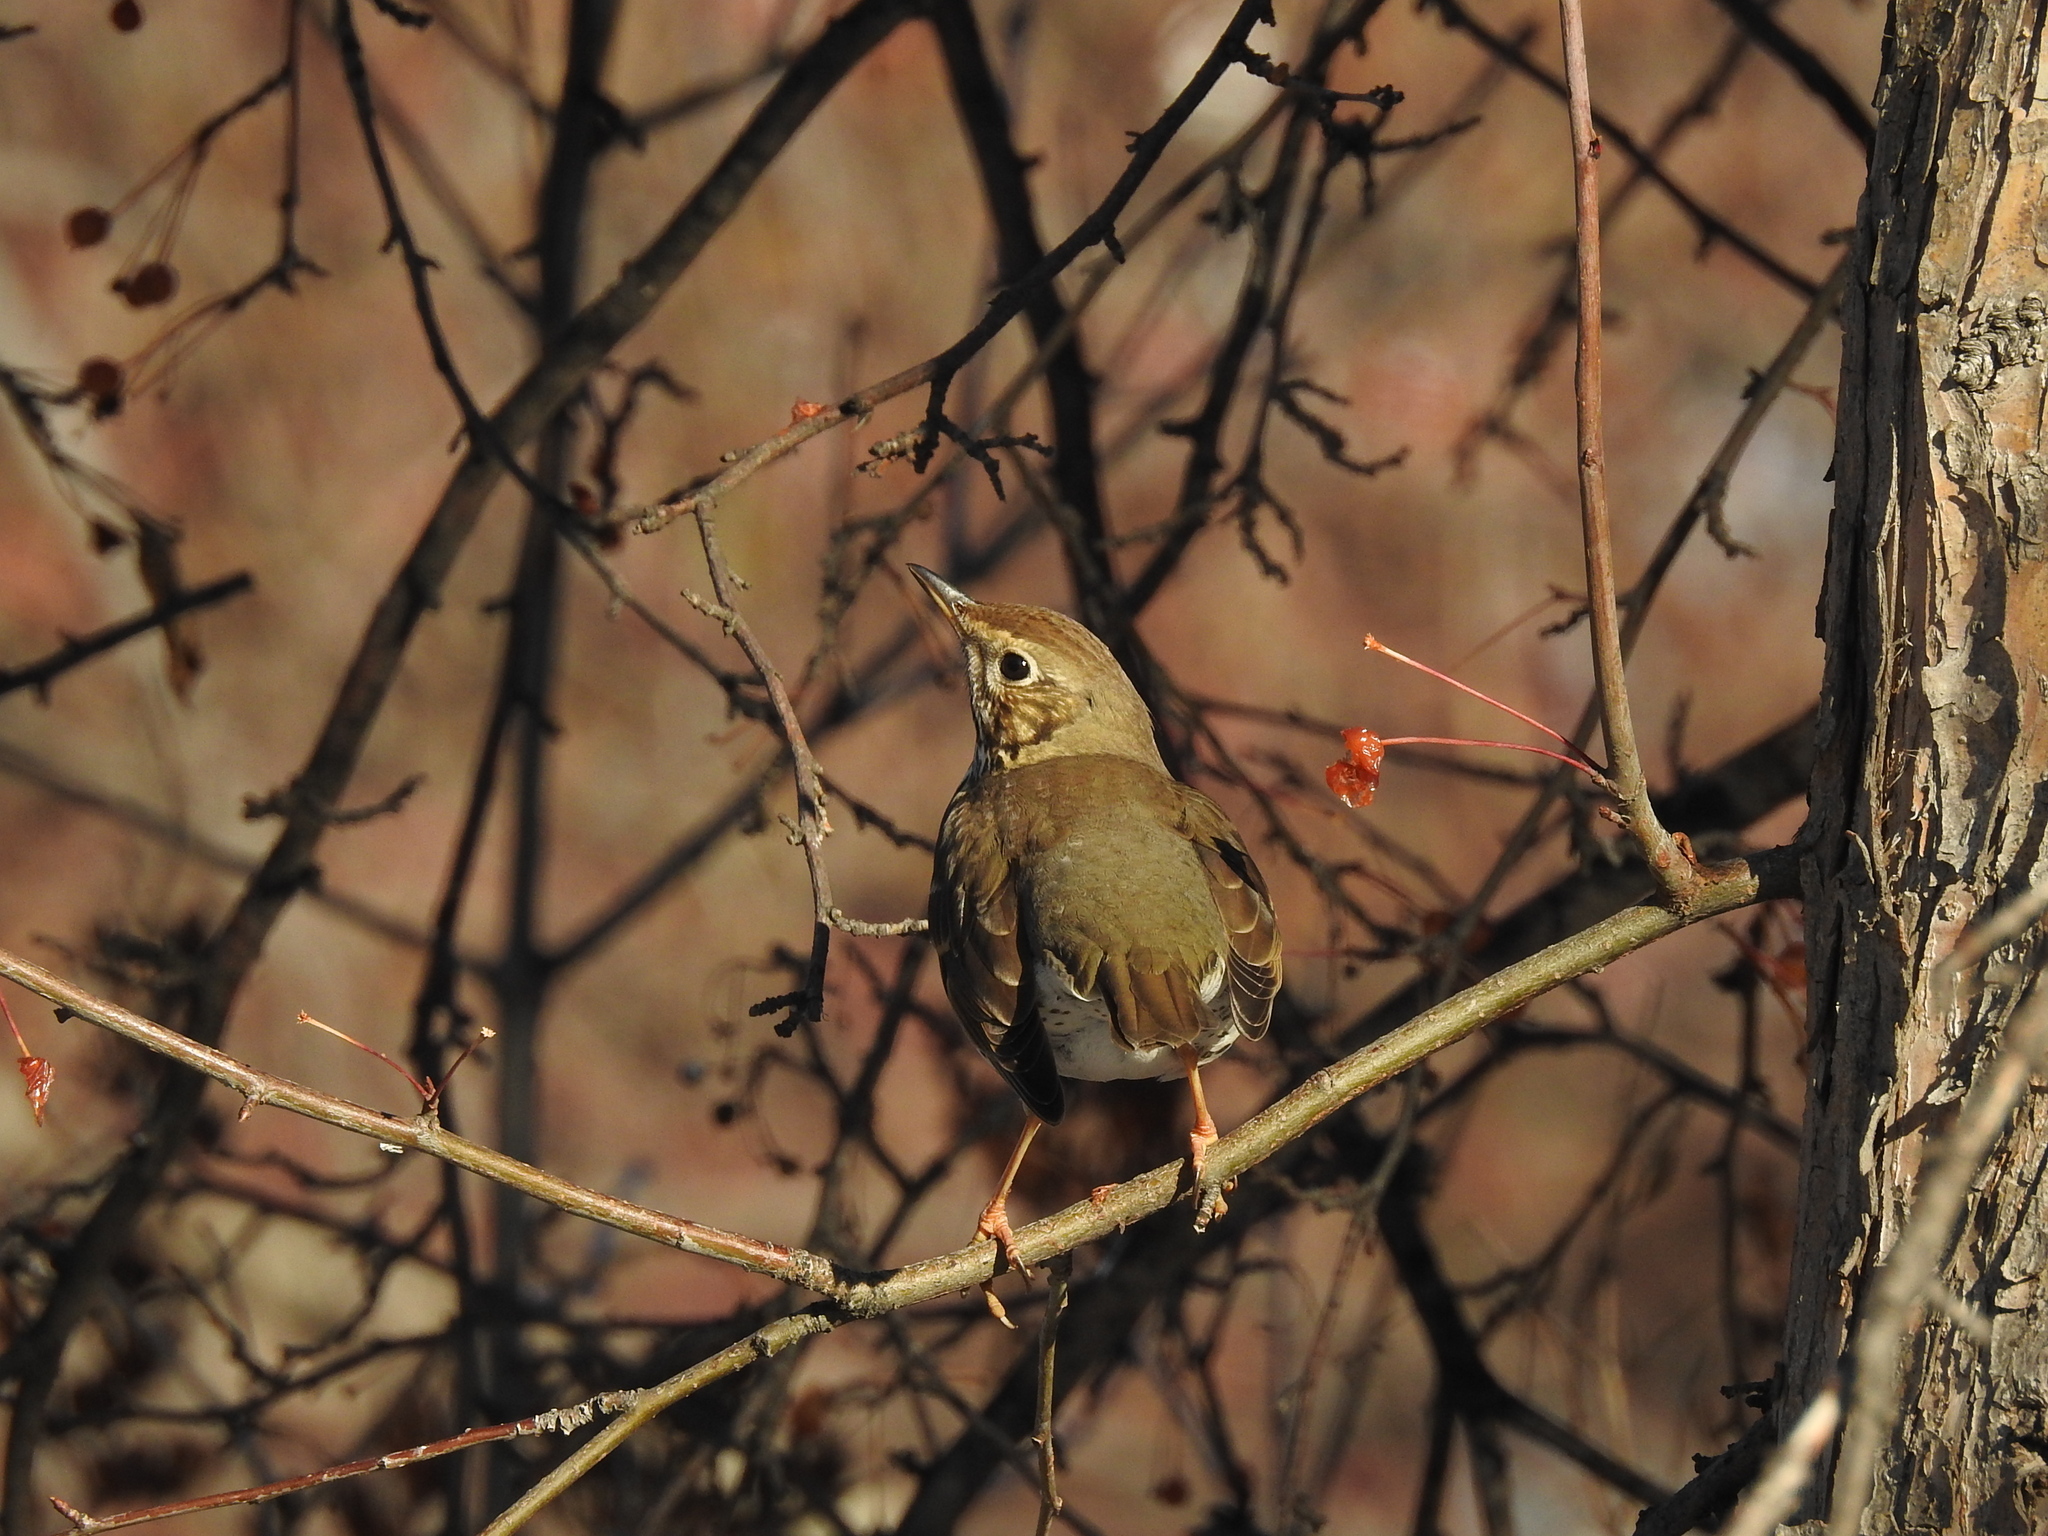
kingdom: Animalia
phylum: Chordata
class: Aves
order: Passeriformes
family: Turdidae
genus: Turdus
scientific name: Turdus philomelos
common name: Song thrush
